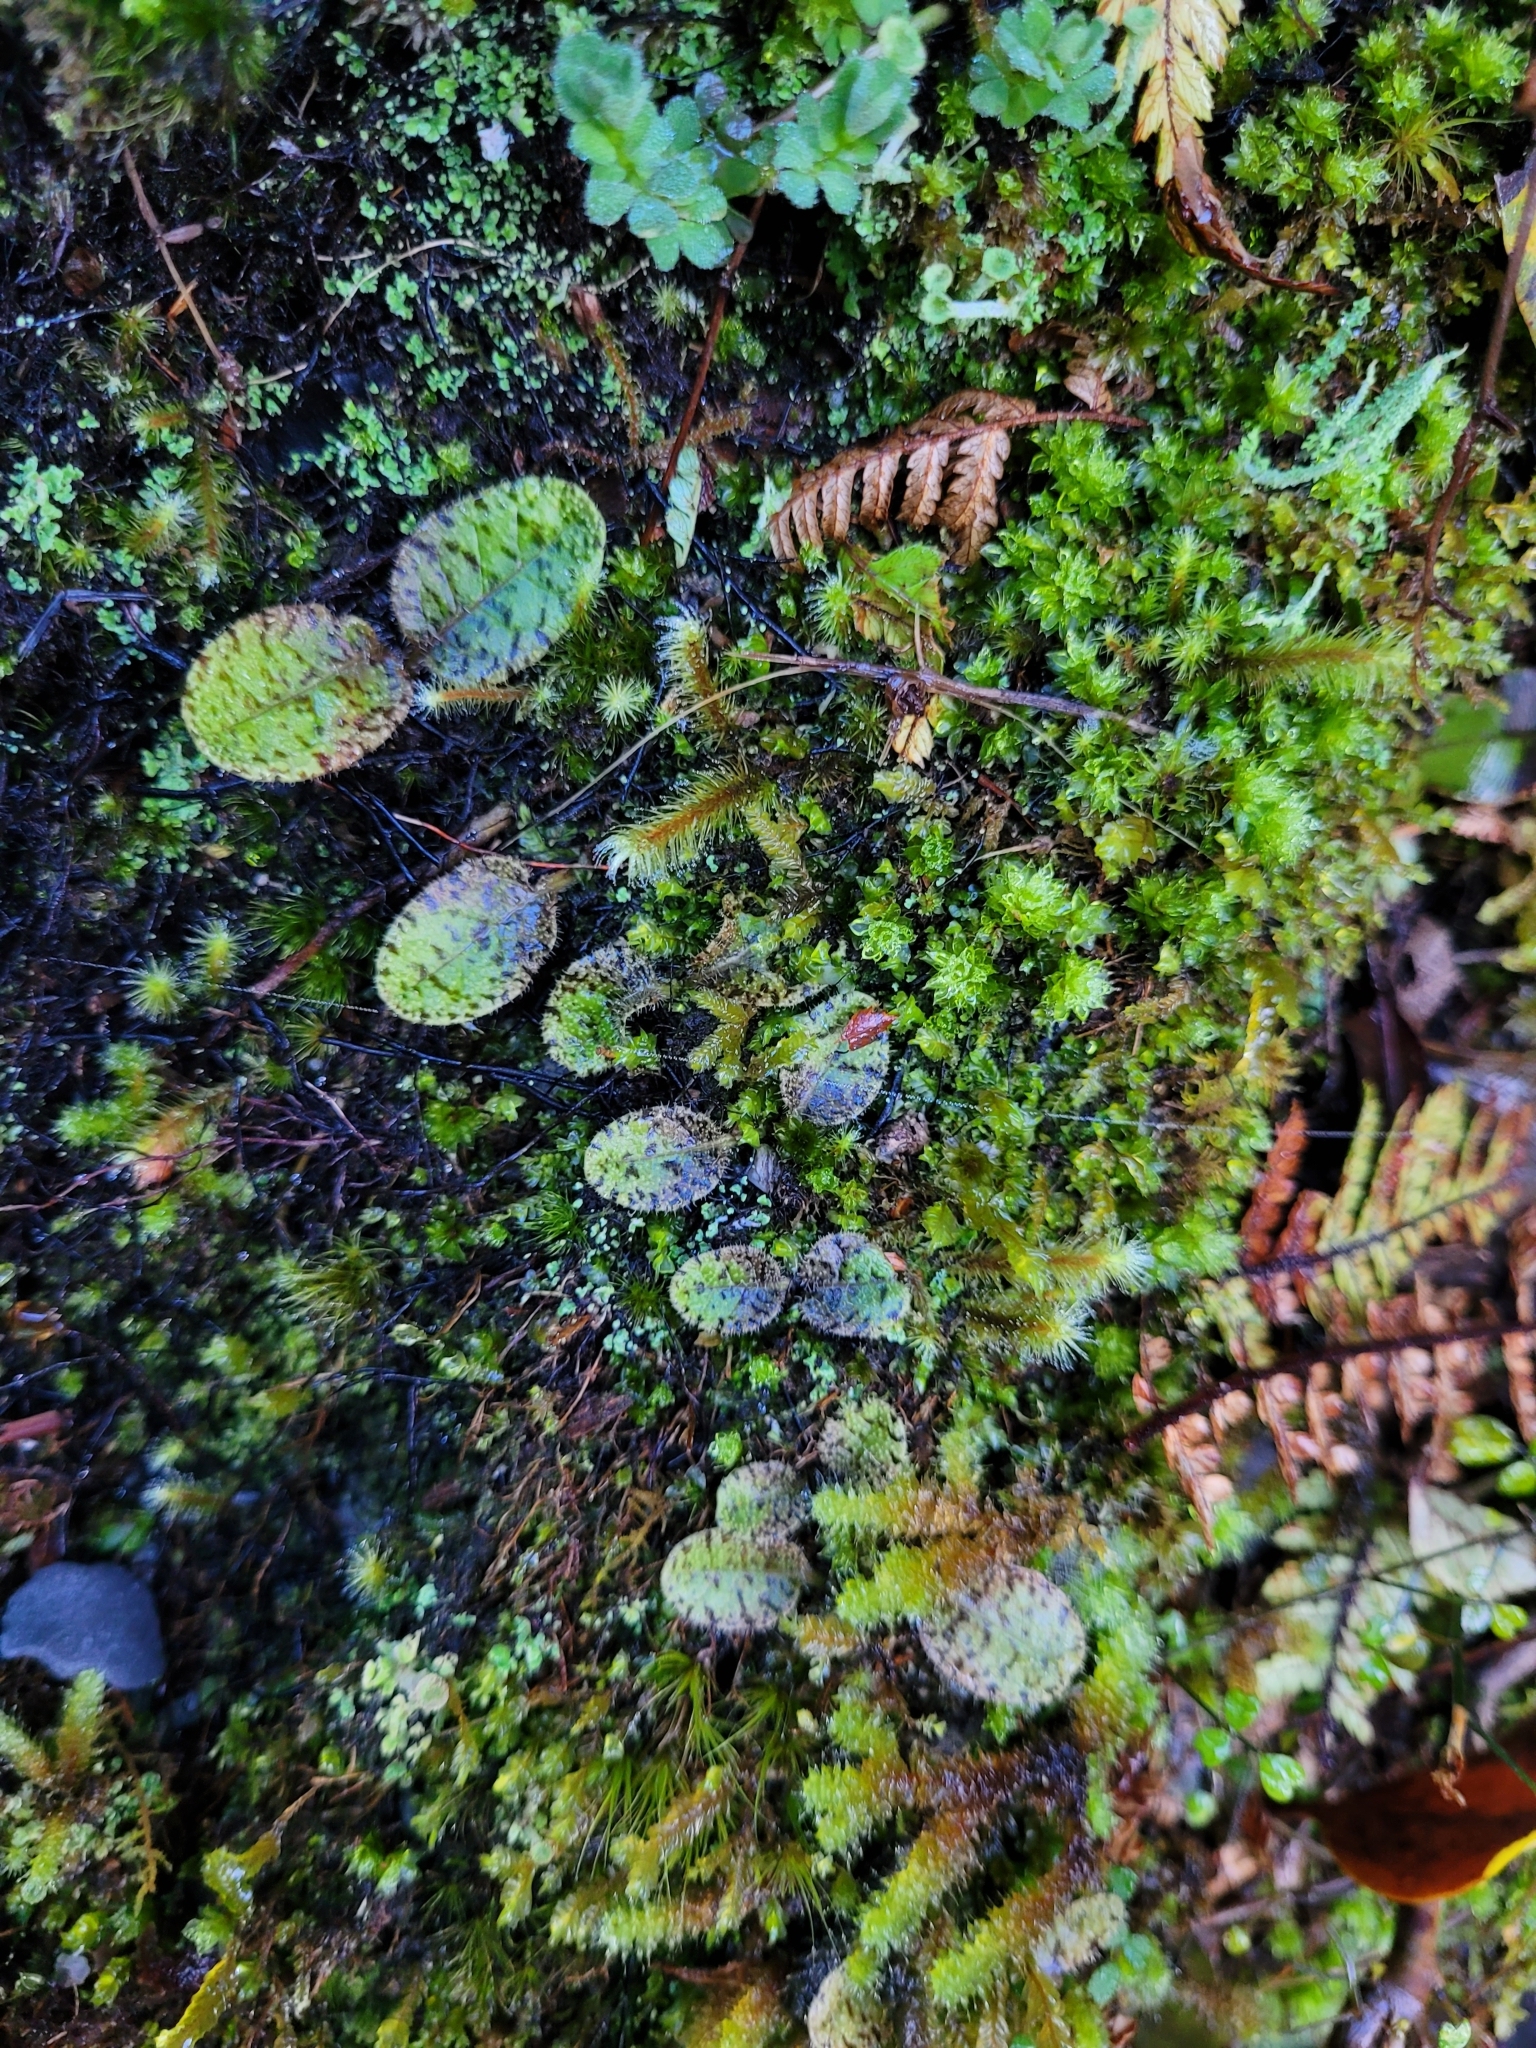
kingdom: Plantae
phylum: Tracheophyta
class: Magnoliopsida
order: Lamiales
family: Mazaceae
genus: Mazus
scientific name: Mazus radicans
